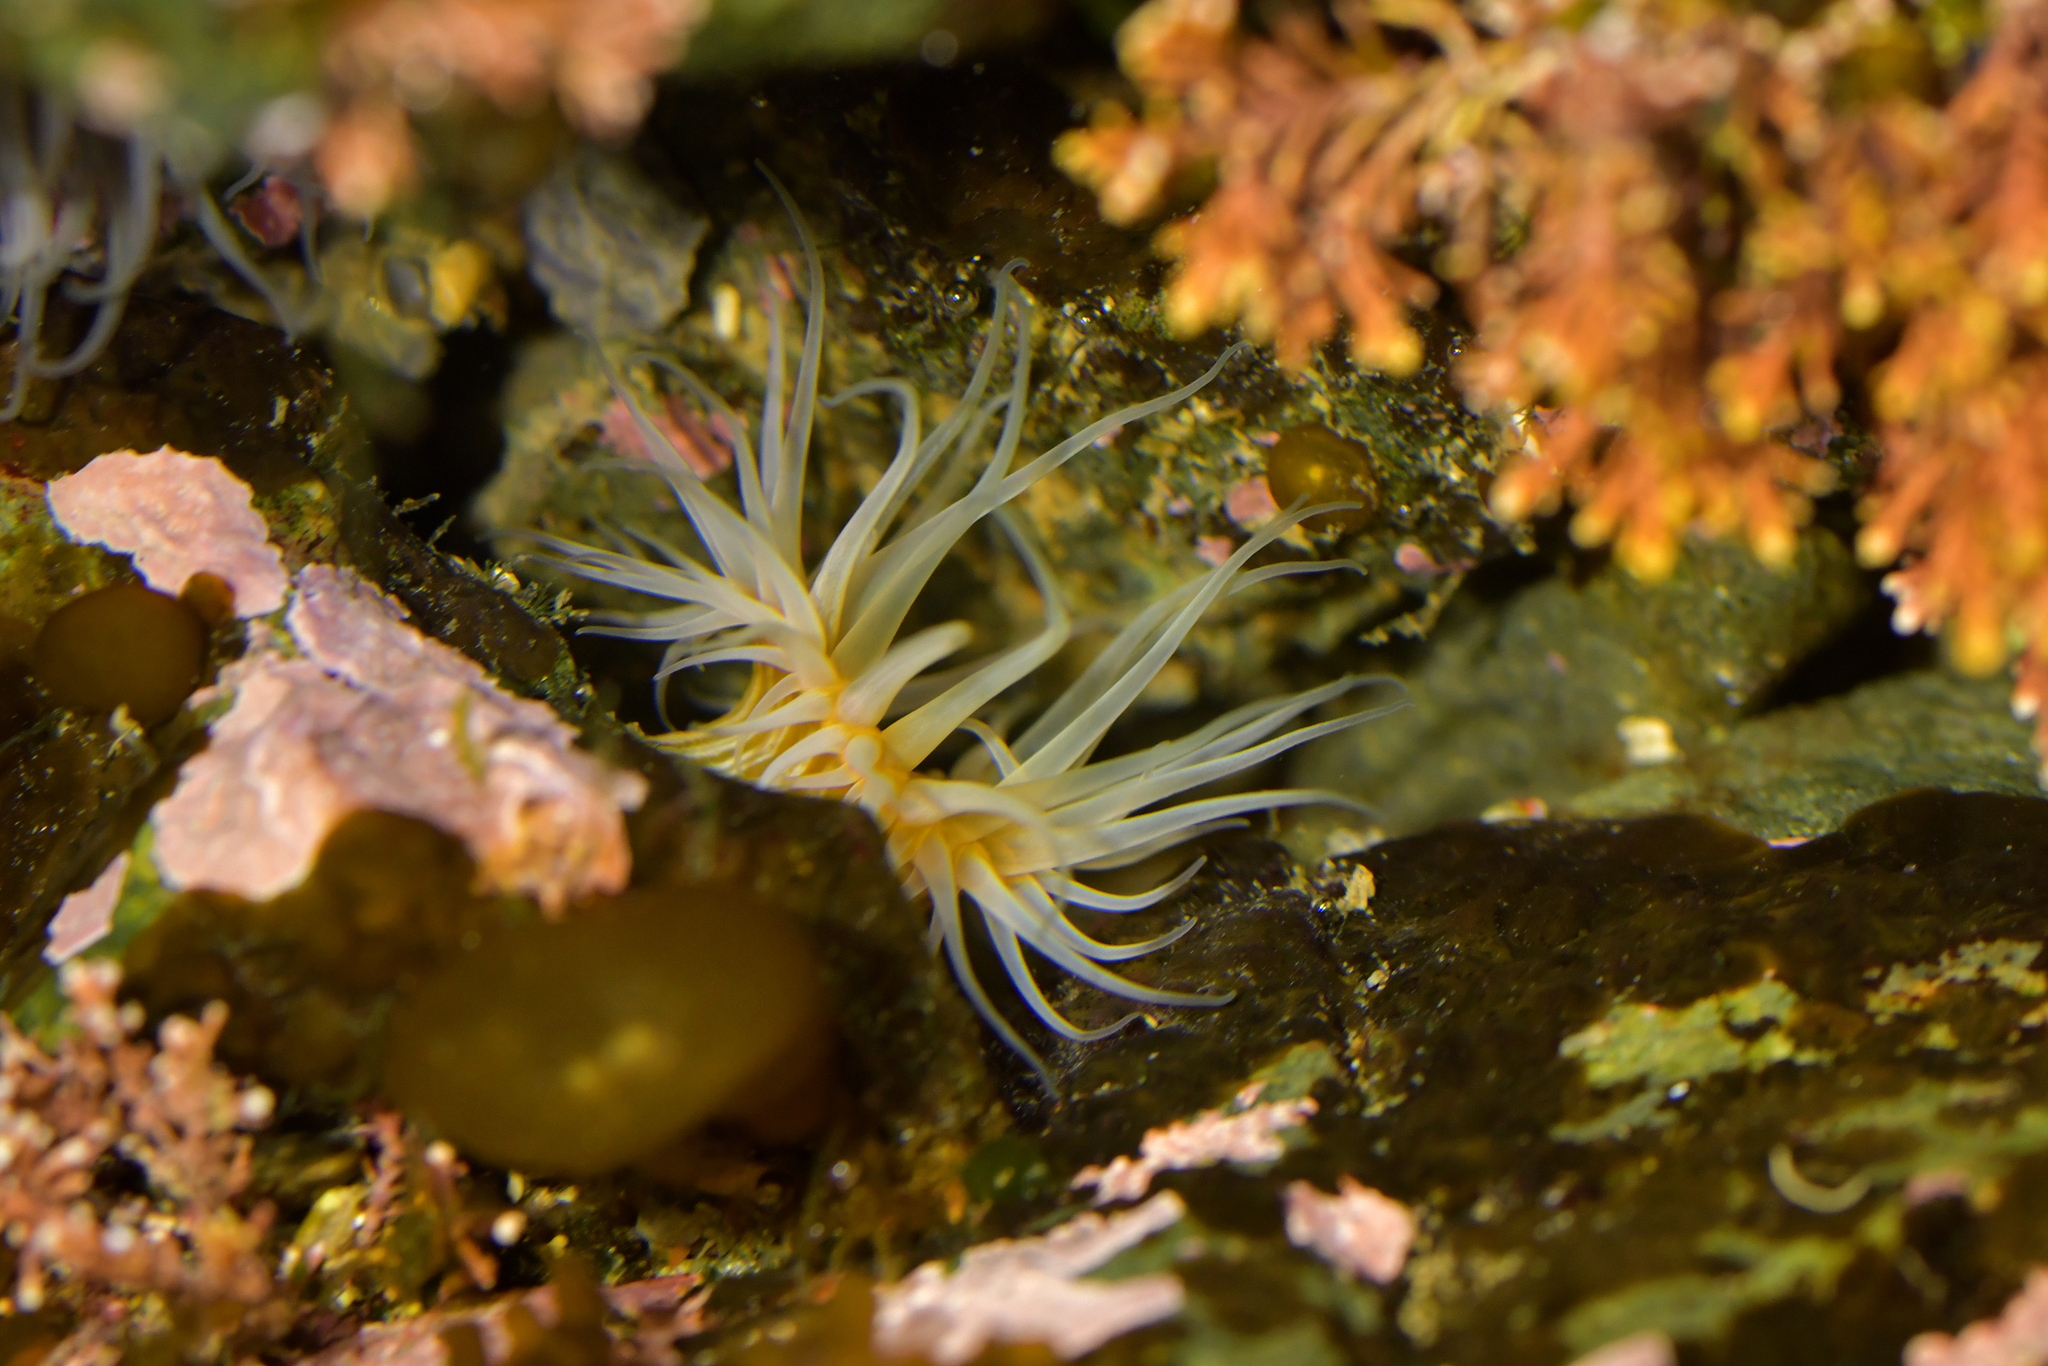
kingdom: Animalia
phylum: Cnidaria
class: Anthozoa
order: Actiniaria
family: Sagartiidae
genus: Anthothoe
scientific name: Anthothoe albocincta
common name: Orange striped anemone
